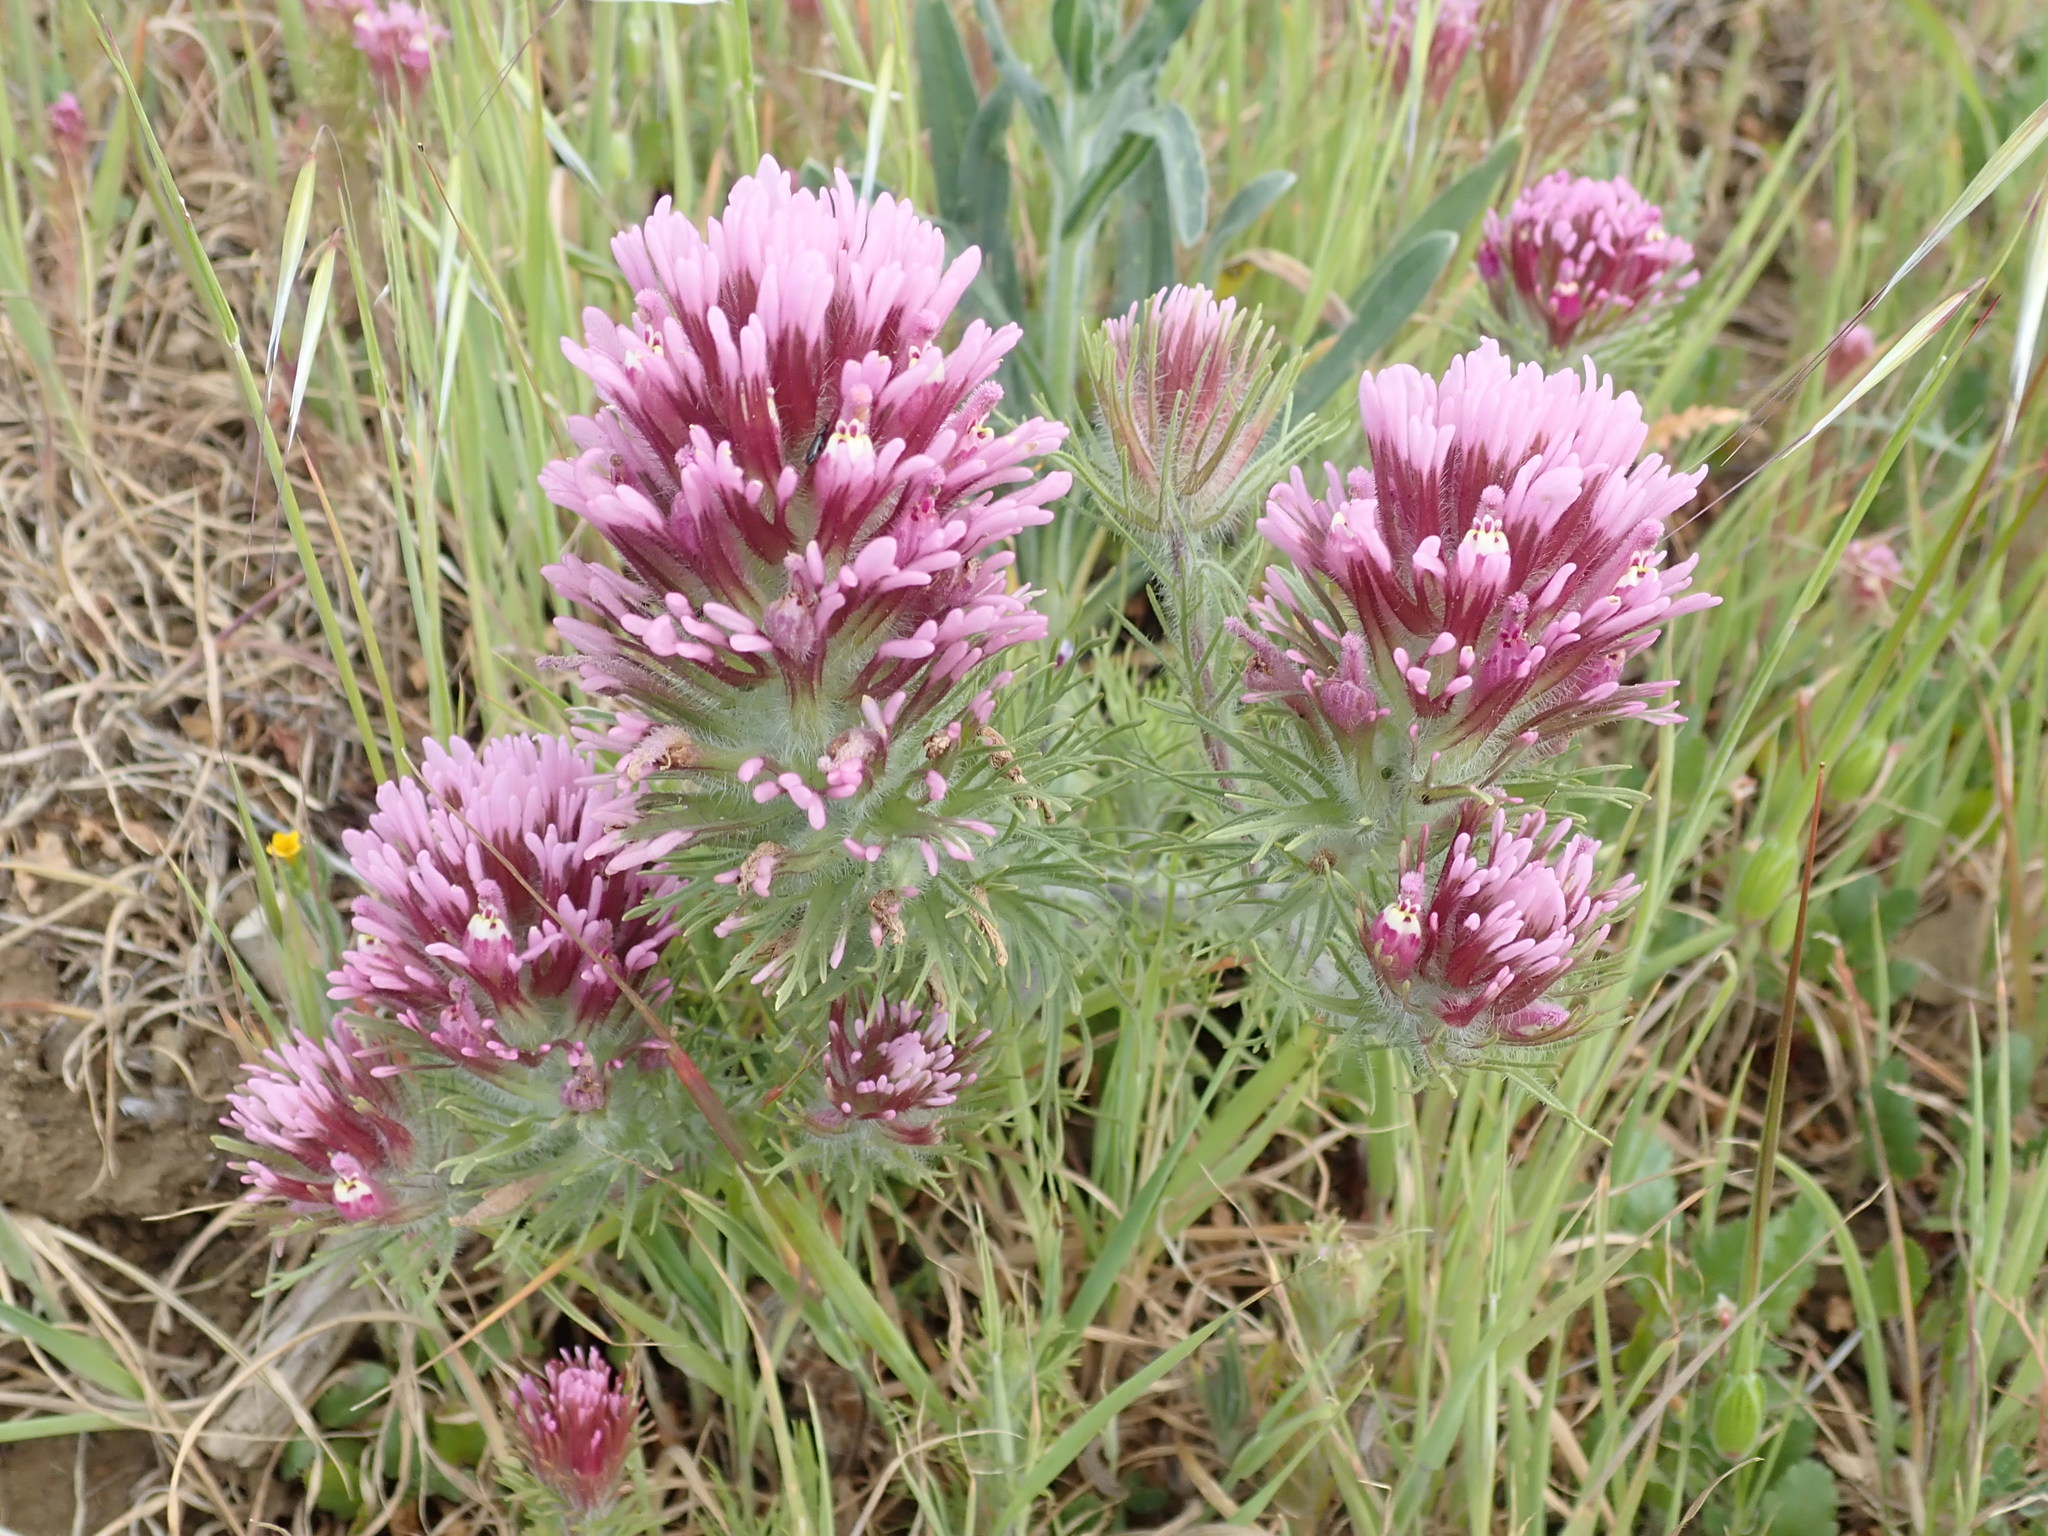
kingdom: Plantae
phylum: Tracheophyta
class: Magnoliopsida
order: Lamiales
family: Orobanchaceae
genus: Castilleja
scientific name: Castilleja exserta
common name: Purple owl-clover
